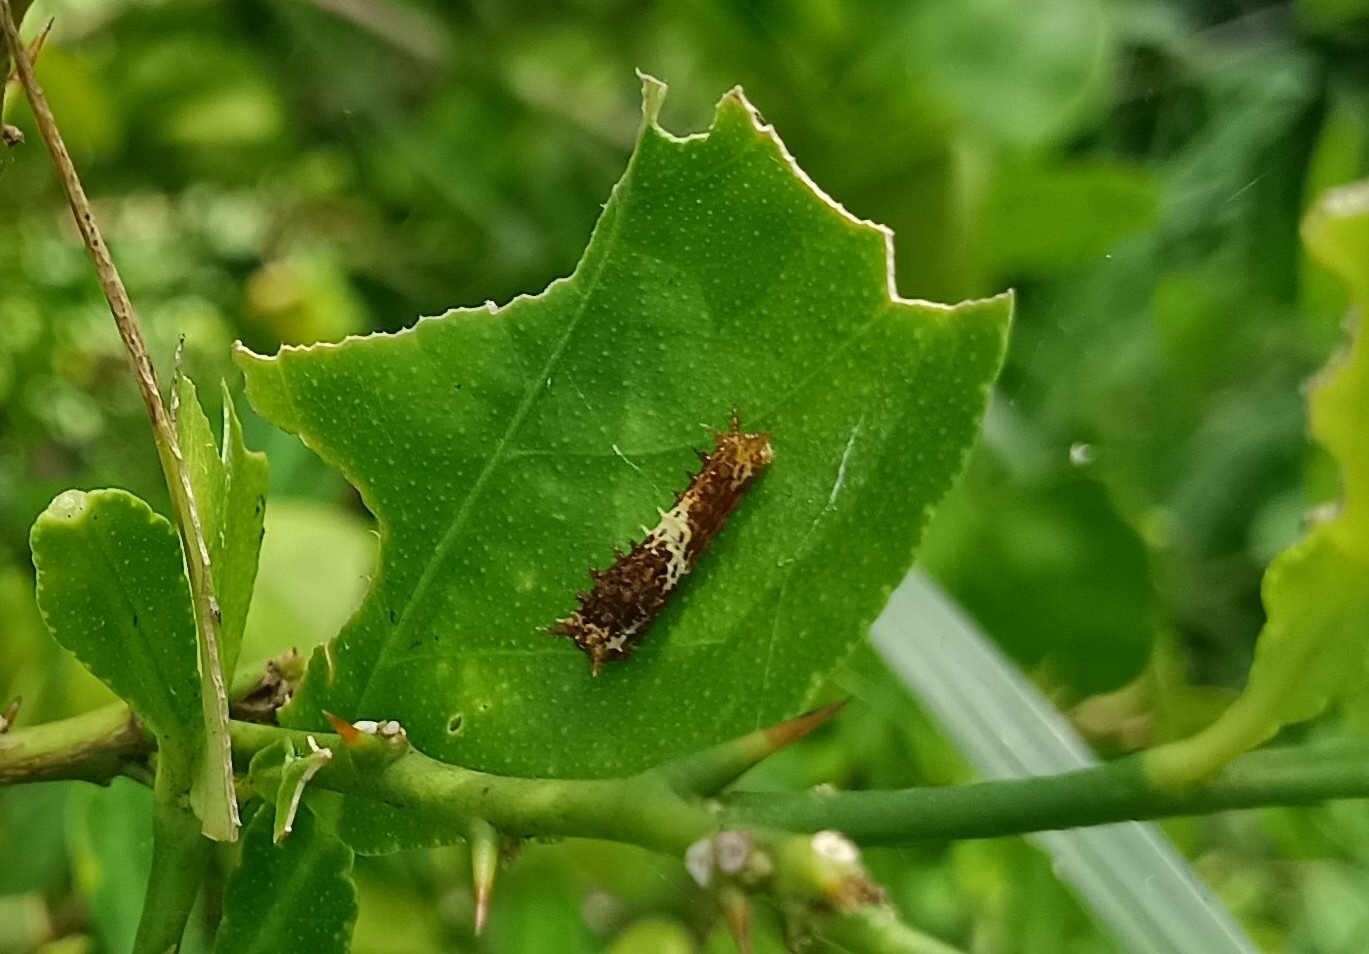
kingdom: Animalia
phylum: Arthropoda
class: Insecta
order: Lepidoptera
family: Papilionidae
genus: Papilio
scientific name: Papilio demoleus
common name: Lime butterfly
